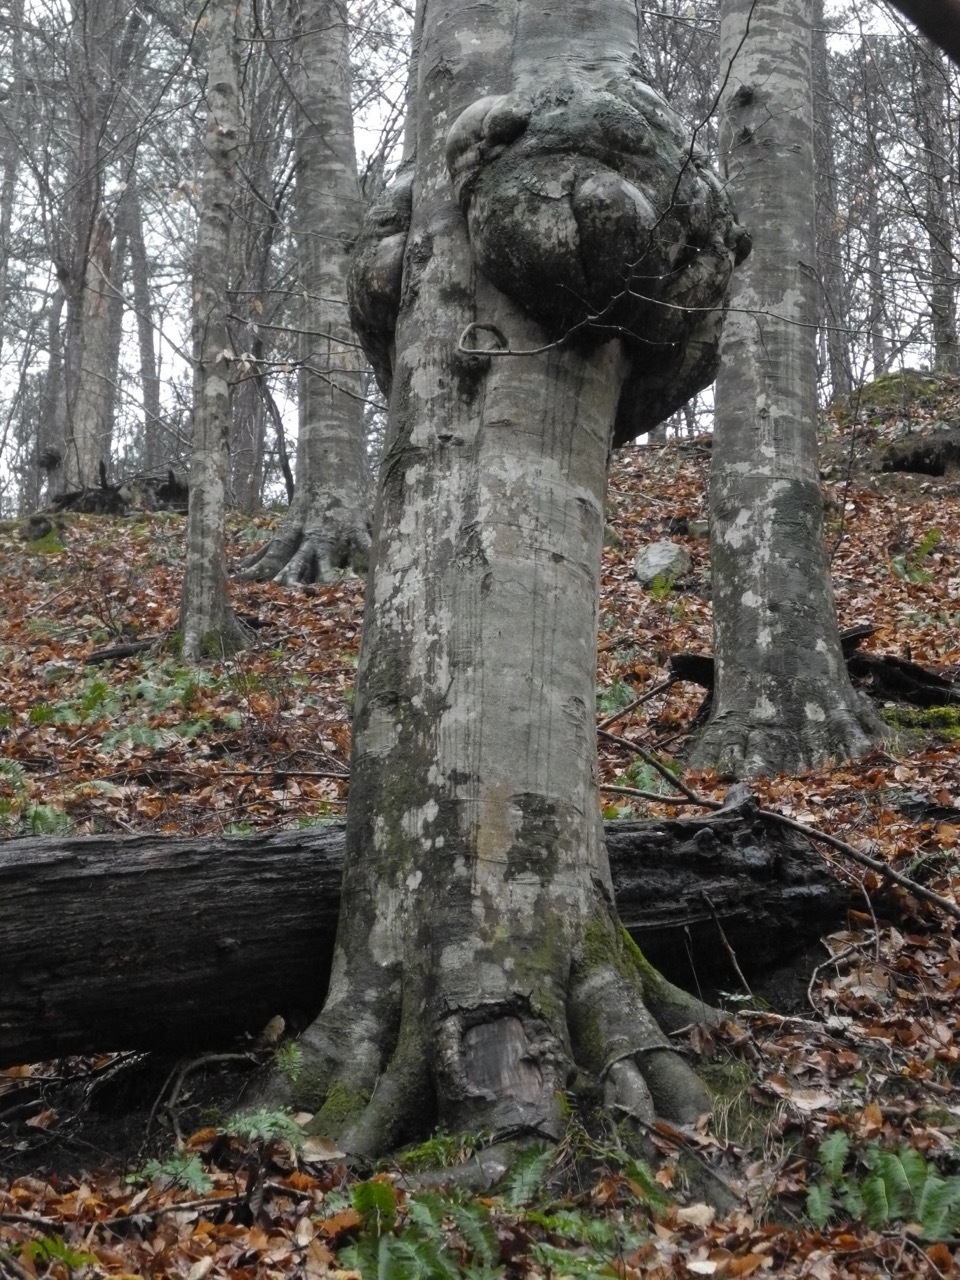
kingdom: Plantae
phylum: Tracheophyta
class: Magnoliopsida
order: Fagales
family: Fagaceae
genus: Fagus
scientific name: Fagus grandifolia
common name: American beech
